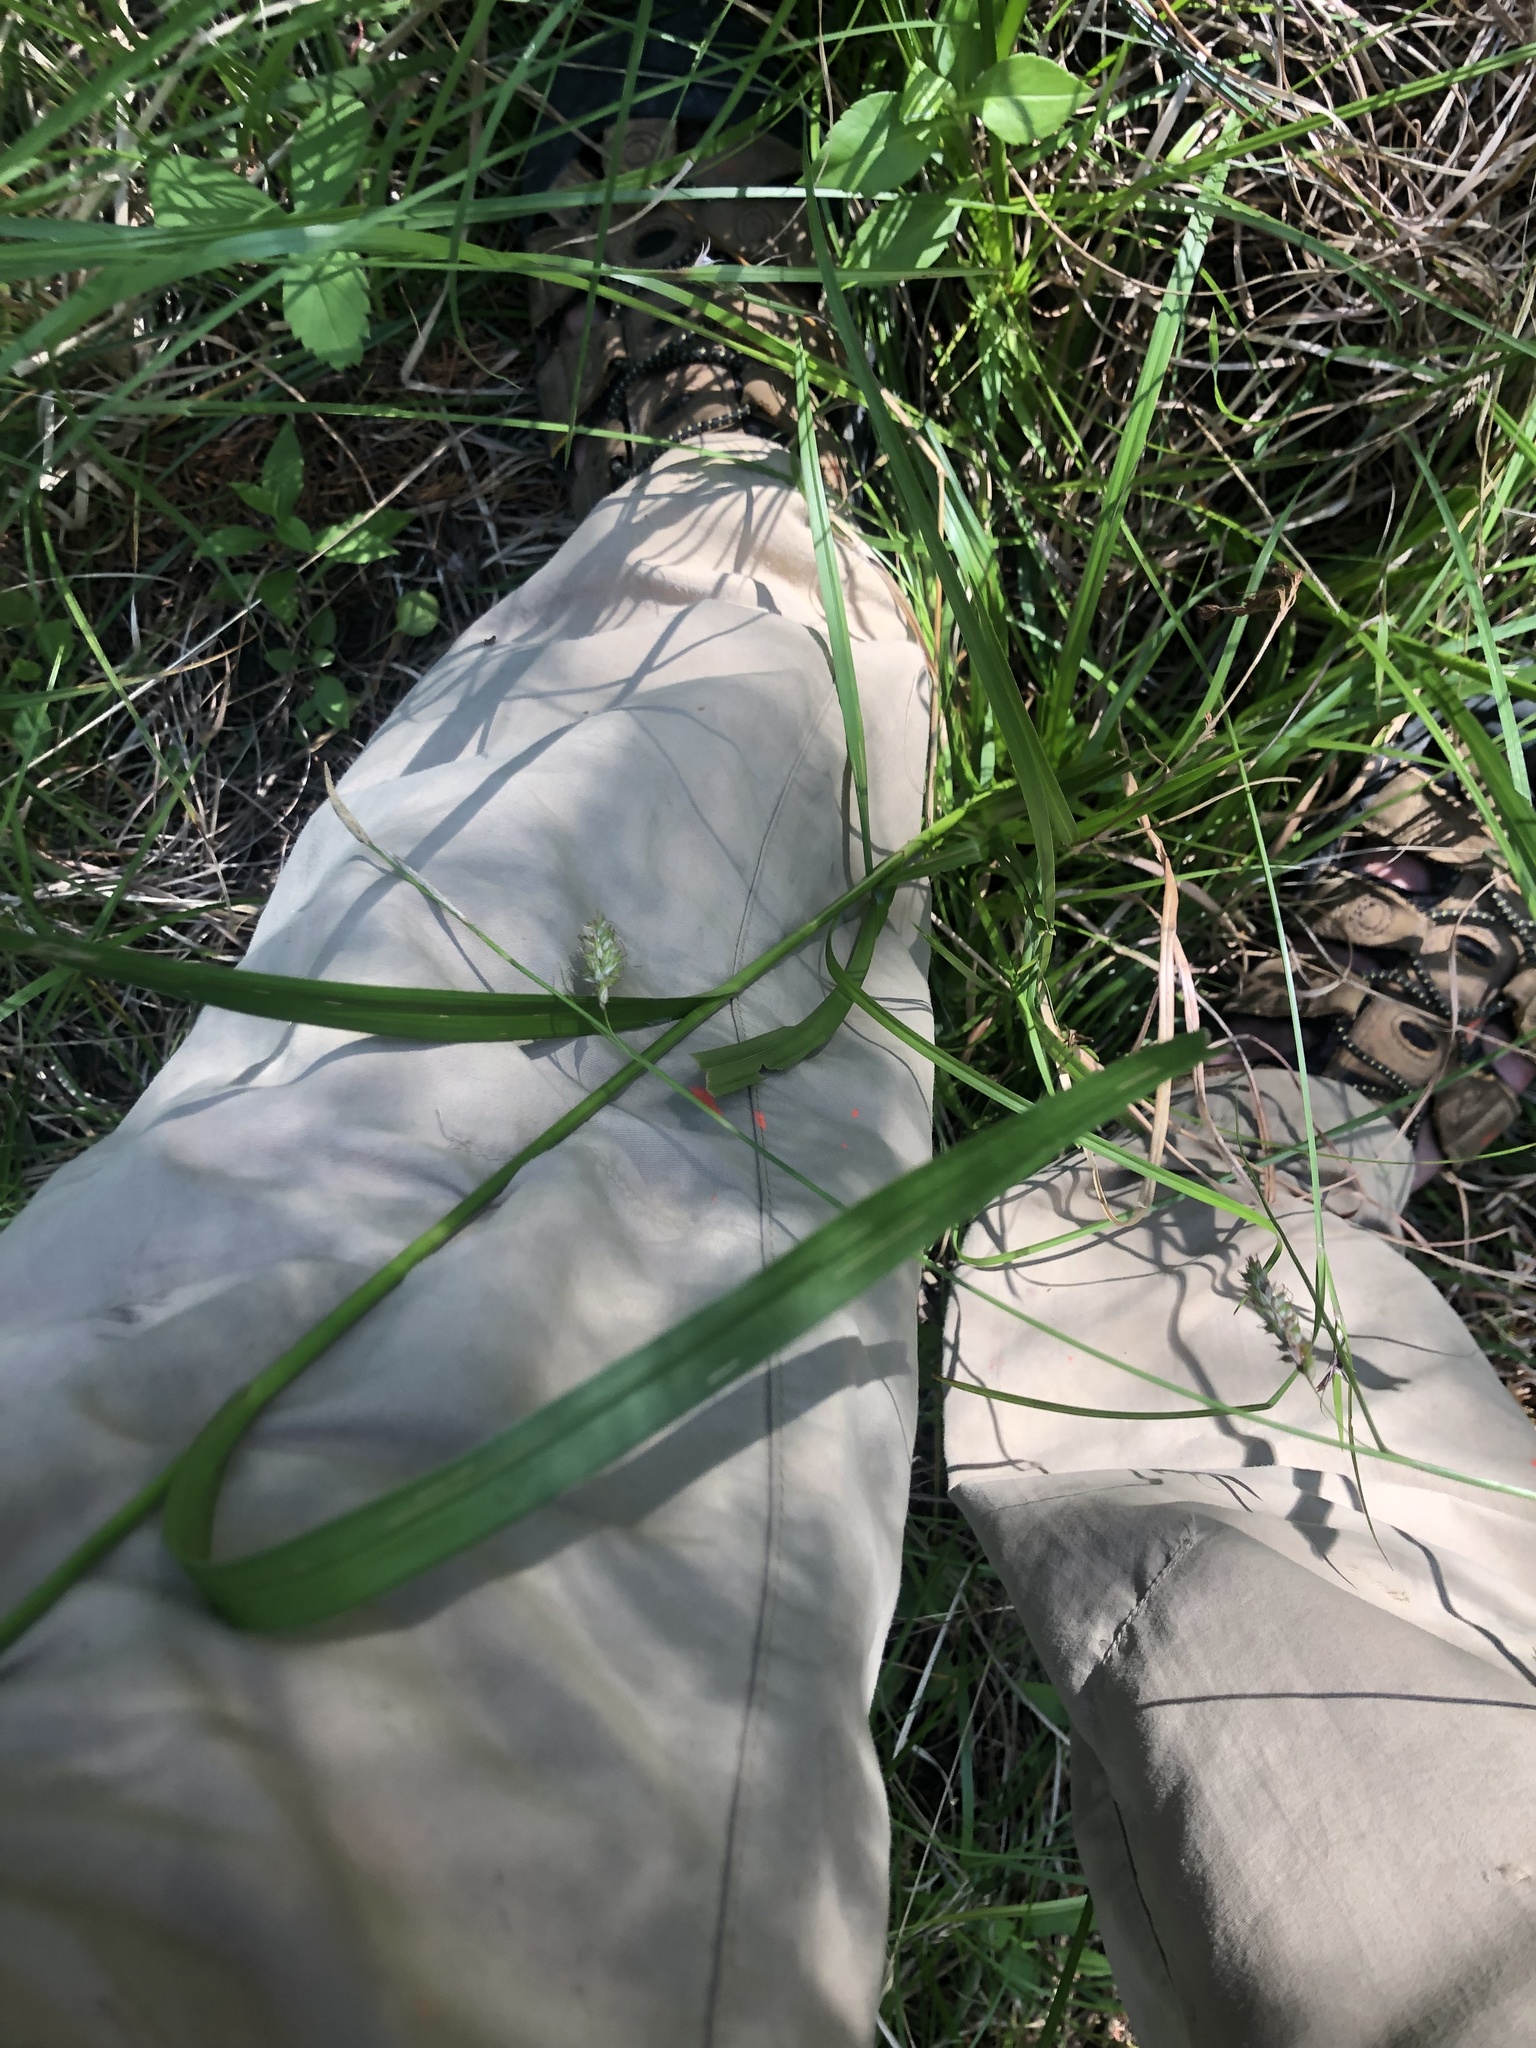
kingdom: Plantae
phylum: Tracheophyta
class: Liliopsida
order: Poales
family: Cyperaceae
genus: Scirpus
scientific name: Scirpus pendulus
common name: Nodding bulrush
